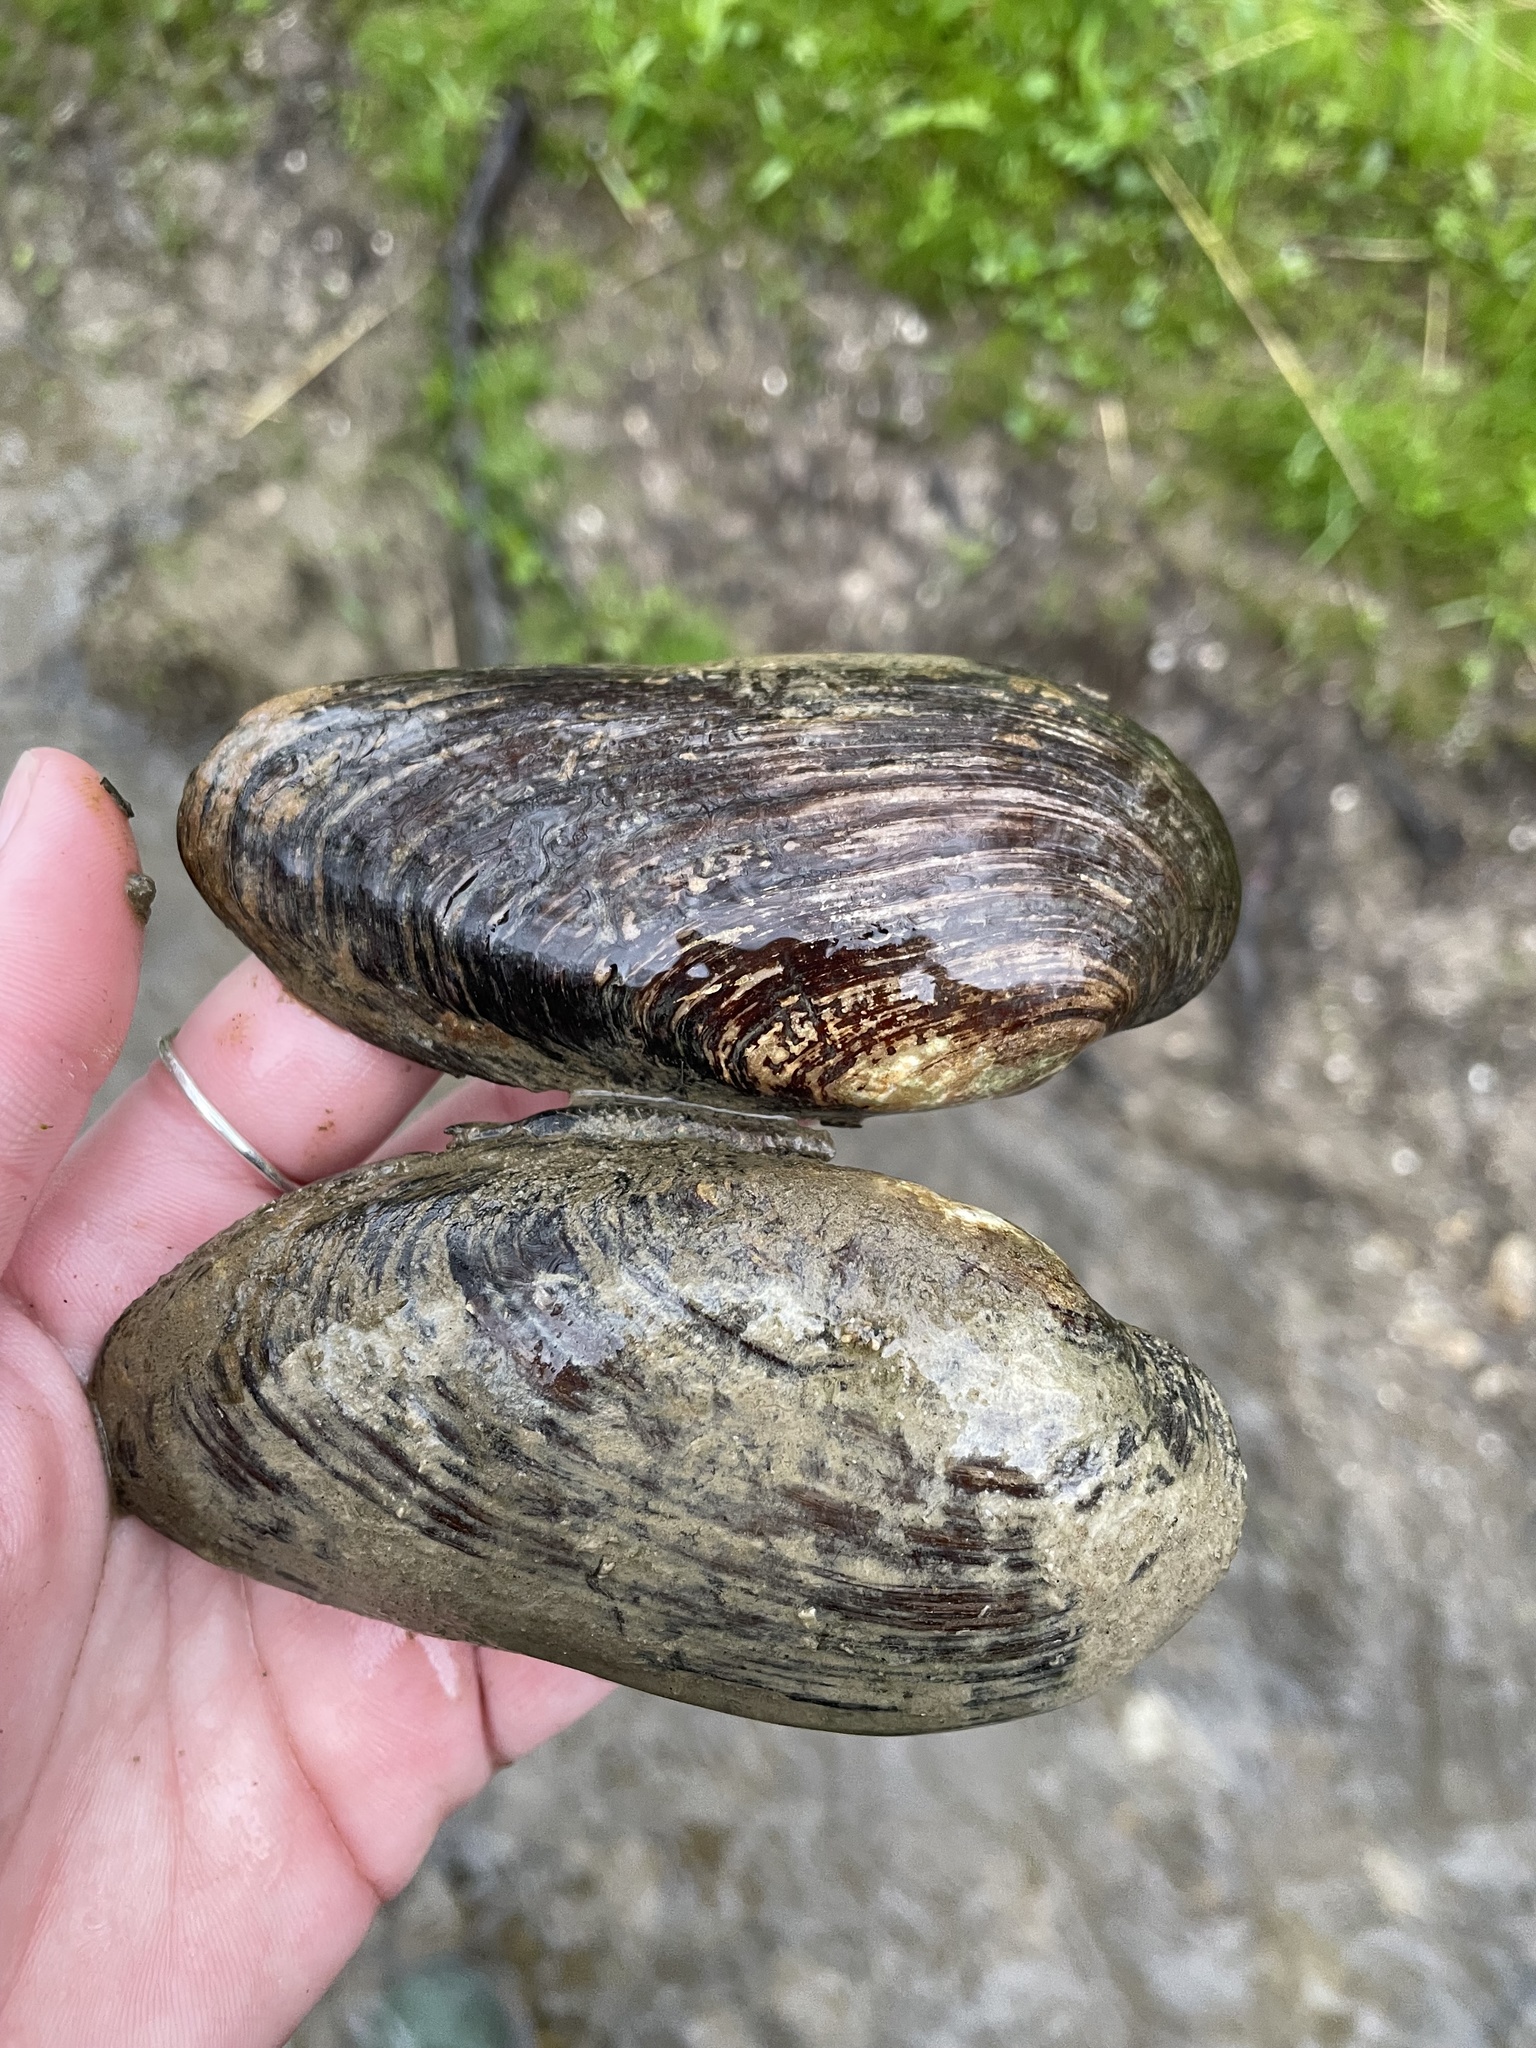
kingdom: Animalia
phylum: Mollusca
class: Bivalvia
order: Unionida
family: Unionidae
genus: Eurynia
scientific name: Eurynia dilatata
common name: Spike
